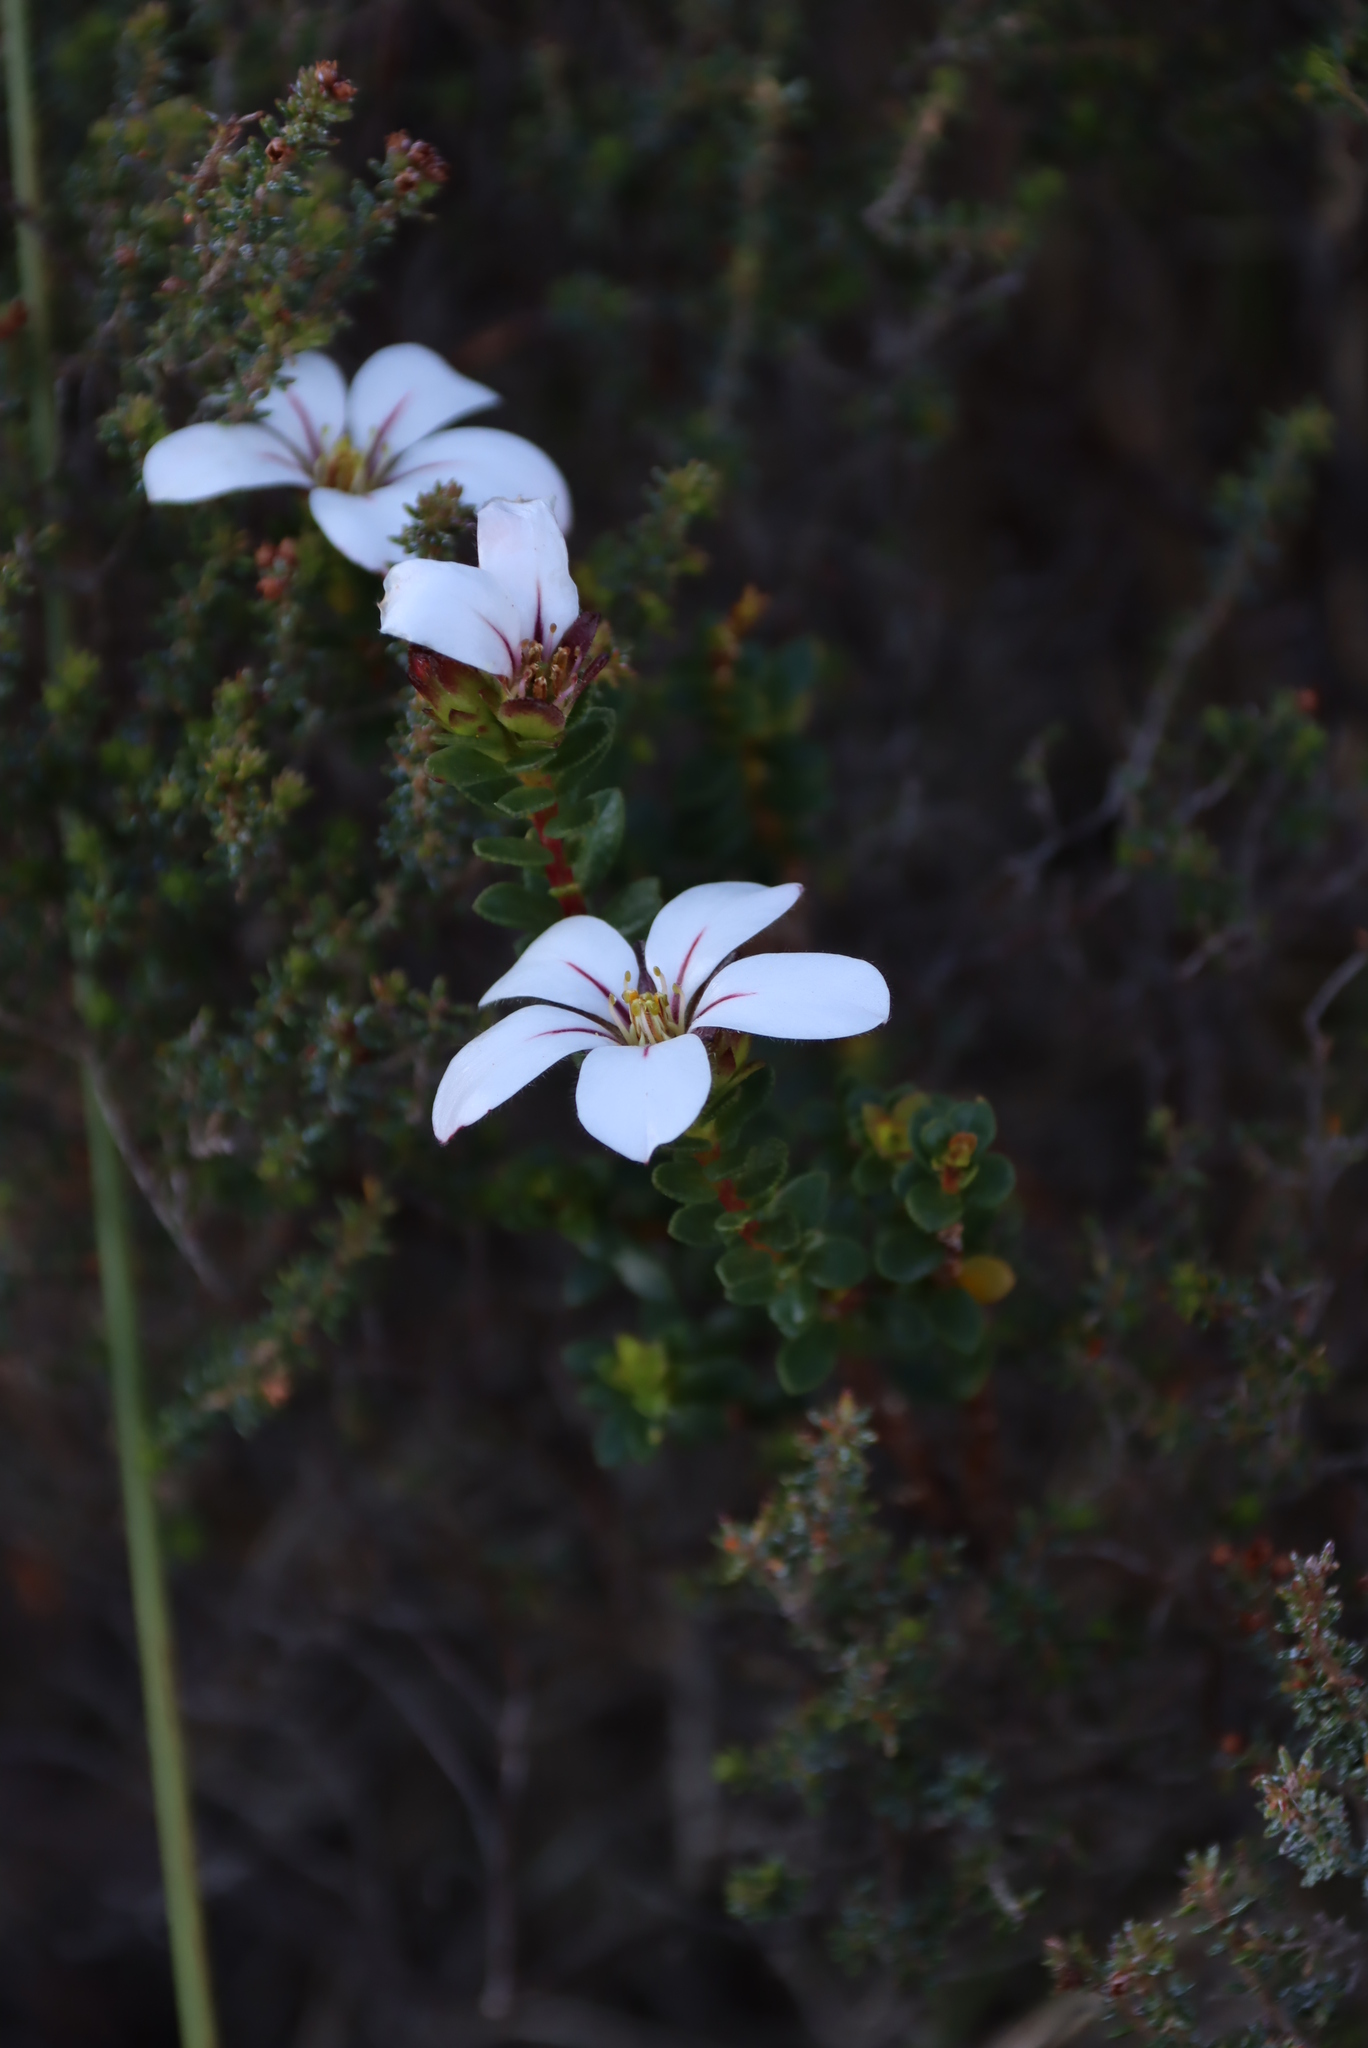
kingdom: Plantae
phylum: Tracheophyta
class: Magnoliopsida
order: Sapindales
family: Rutaceae
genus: Adenandra
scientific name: Adenandra uniflora
